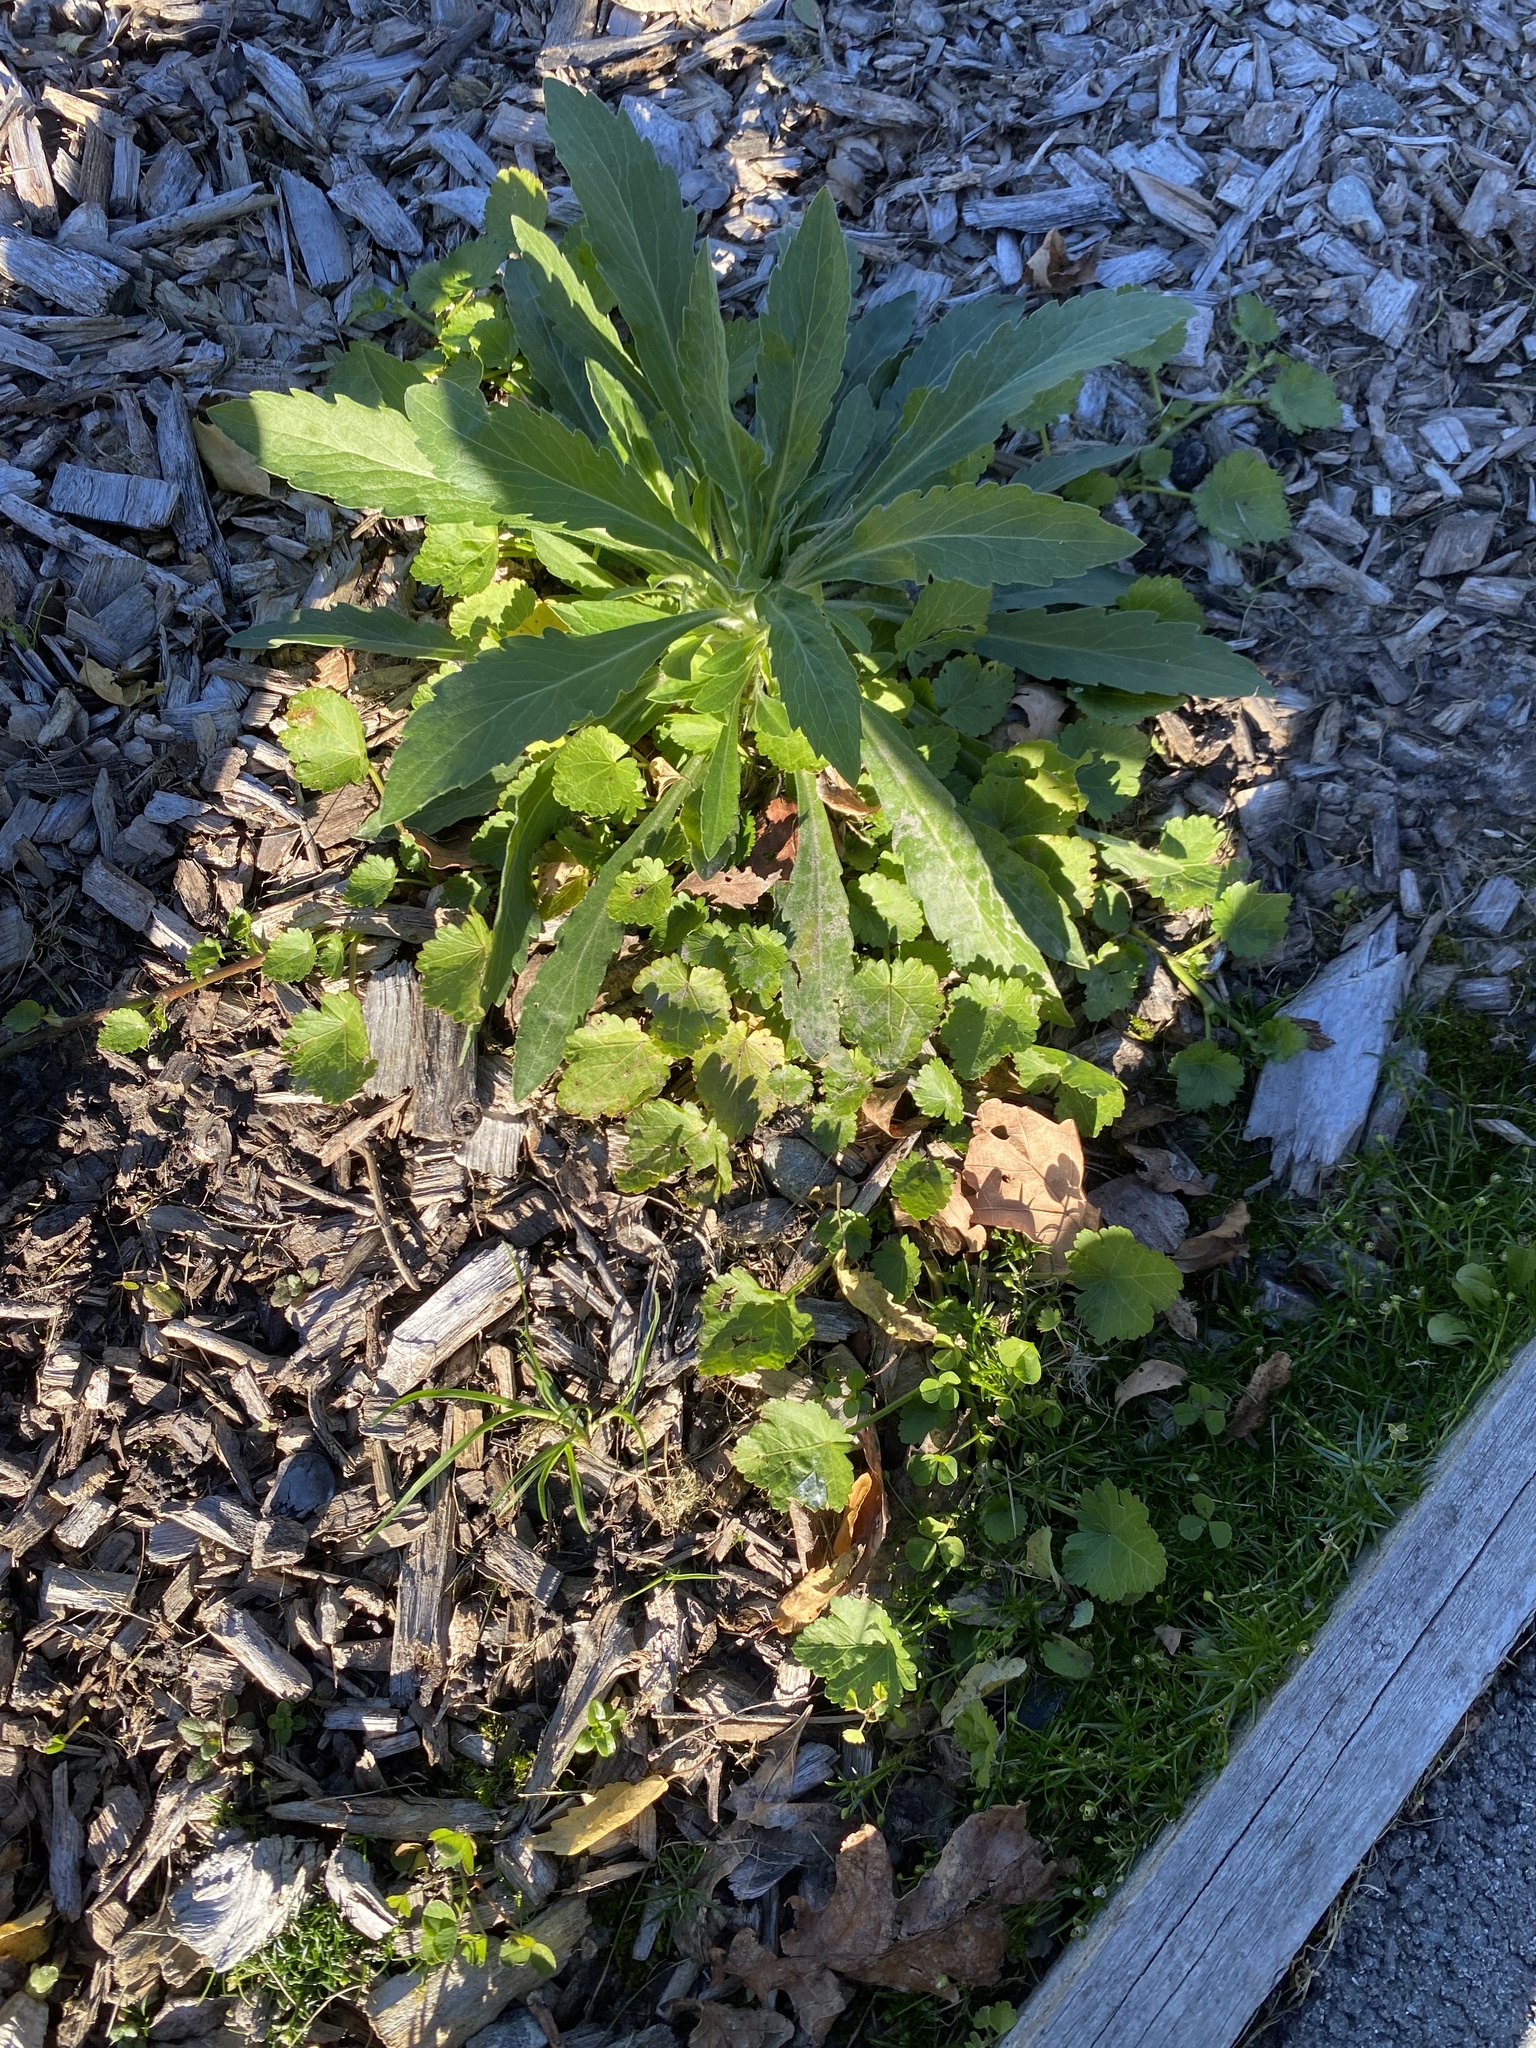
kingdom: Plantae
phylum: Tracheophyta
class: Magnoliopsida
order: Malvales
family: Malvaceae
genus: Modiola
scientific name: Modiola caroliniana
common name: Carolina bristlemallow
